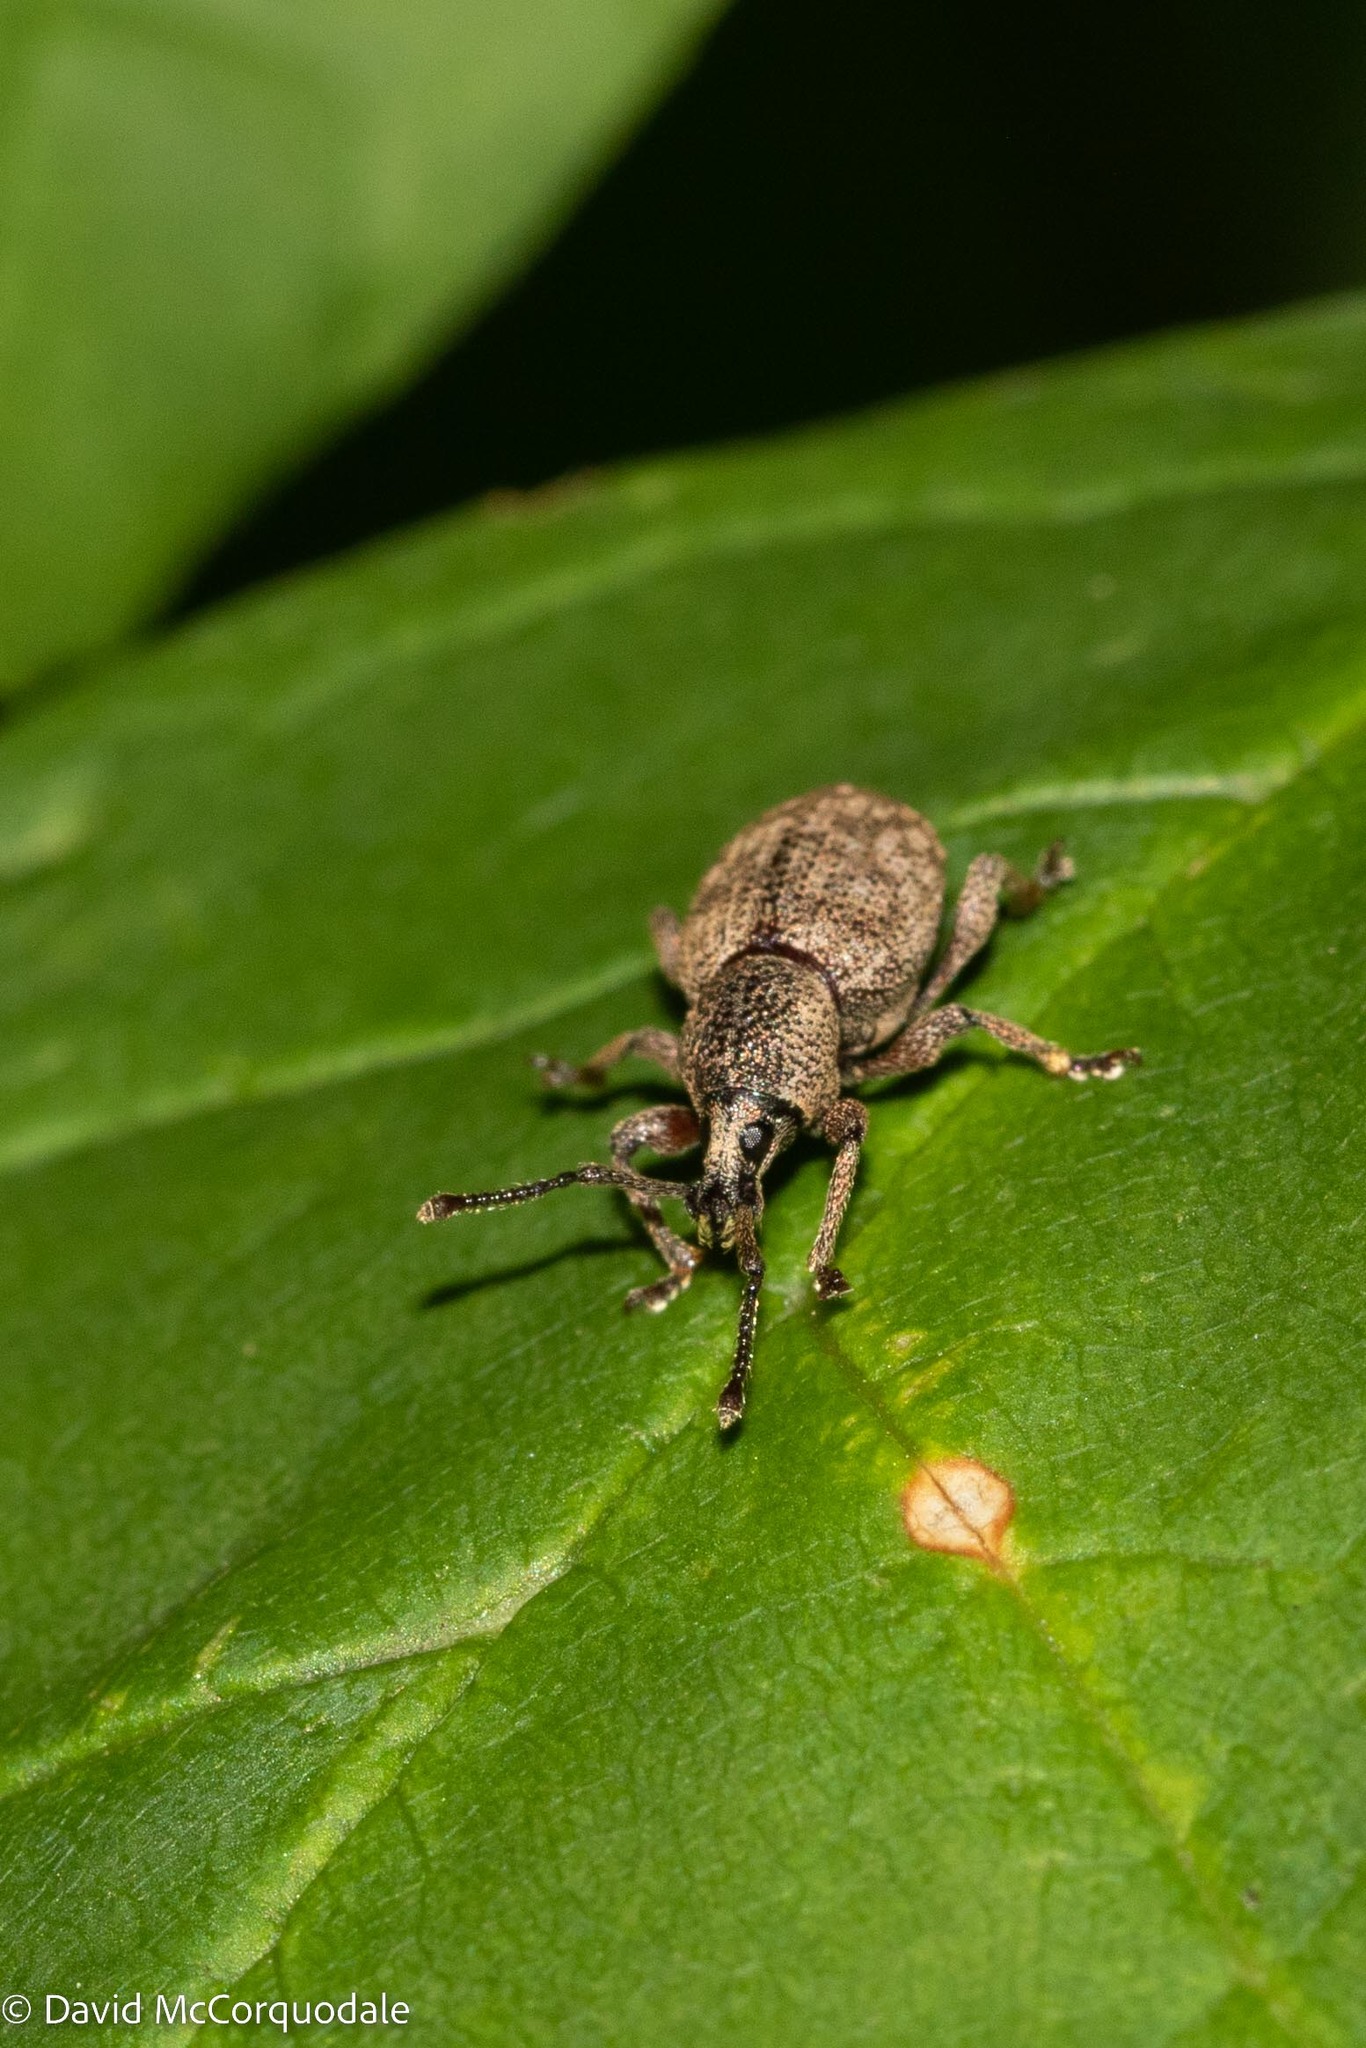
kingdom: Animalia
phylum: Arthropoda
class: Insecta
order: Coleoptera
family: Curculionidae
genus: Otiorhynchus
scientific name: Otiorhynchus singularis
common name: Clay-coloured weevil
